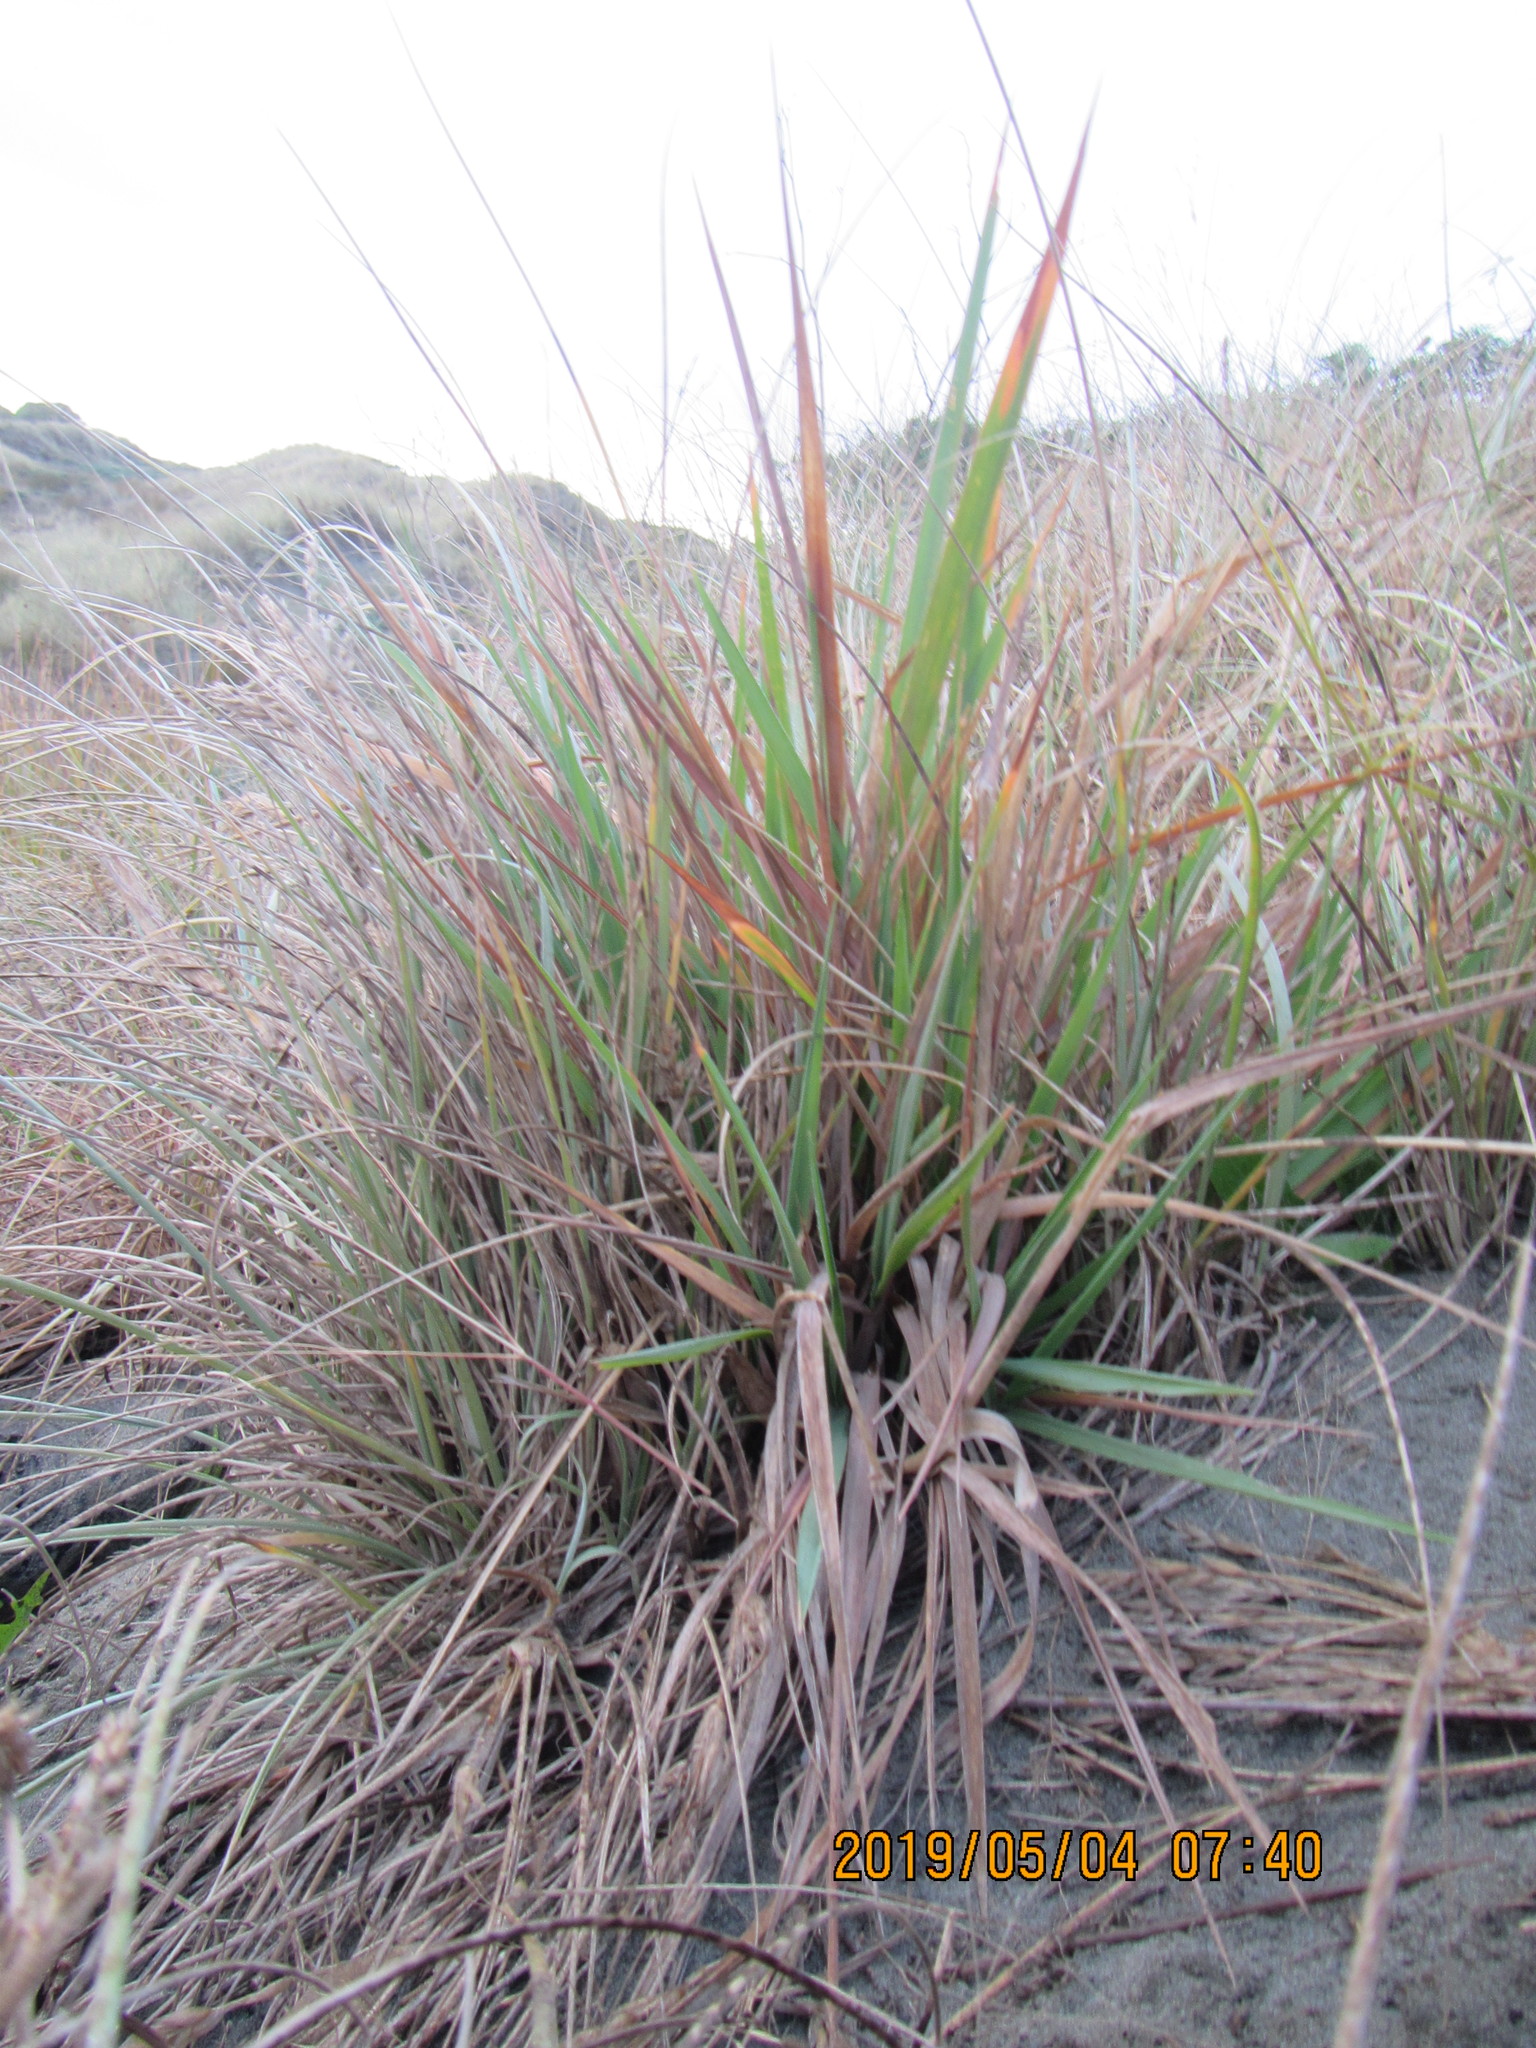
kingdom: Plantae
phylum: Tracheophyta
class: Liliopsida
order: Poales
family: Poaceae
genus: Lachnagrostis
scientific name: Lachnagrostis billardierei
